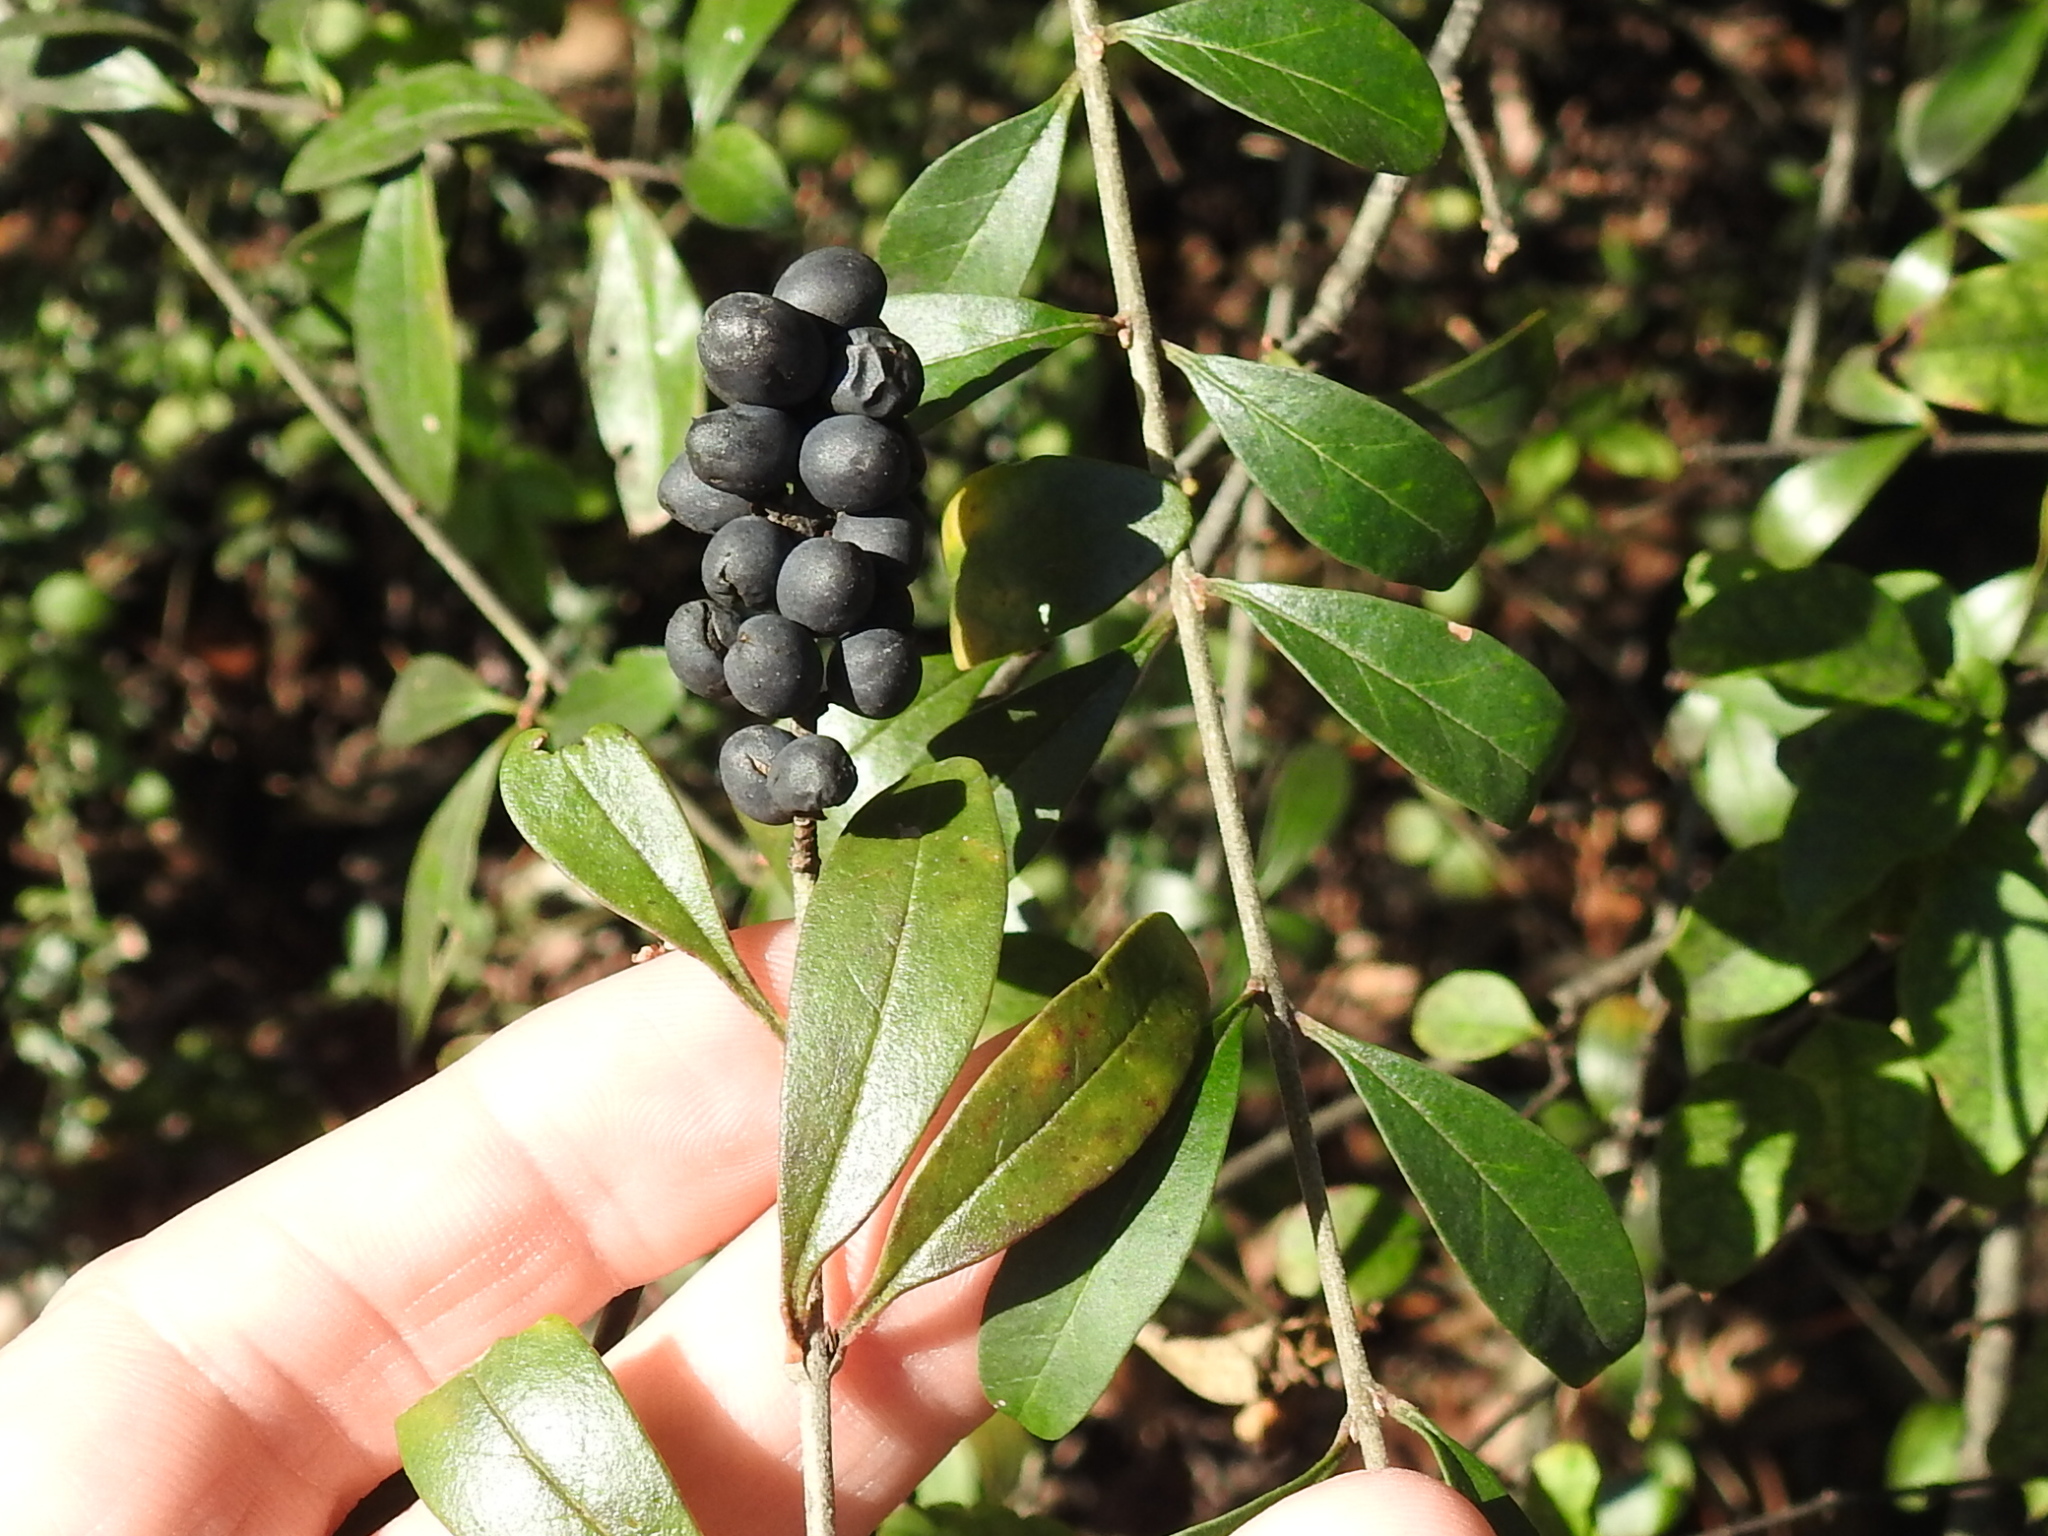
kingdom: Plantae
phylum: Tracheophyta
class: Magnoliopsida
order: Lamiales
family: Oleaceae
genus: Ligustrum
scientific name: Ligustrum quihoui
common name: Waxyleaf privet
